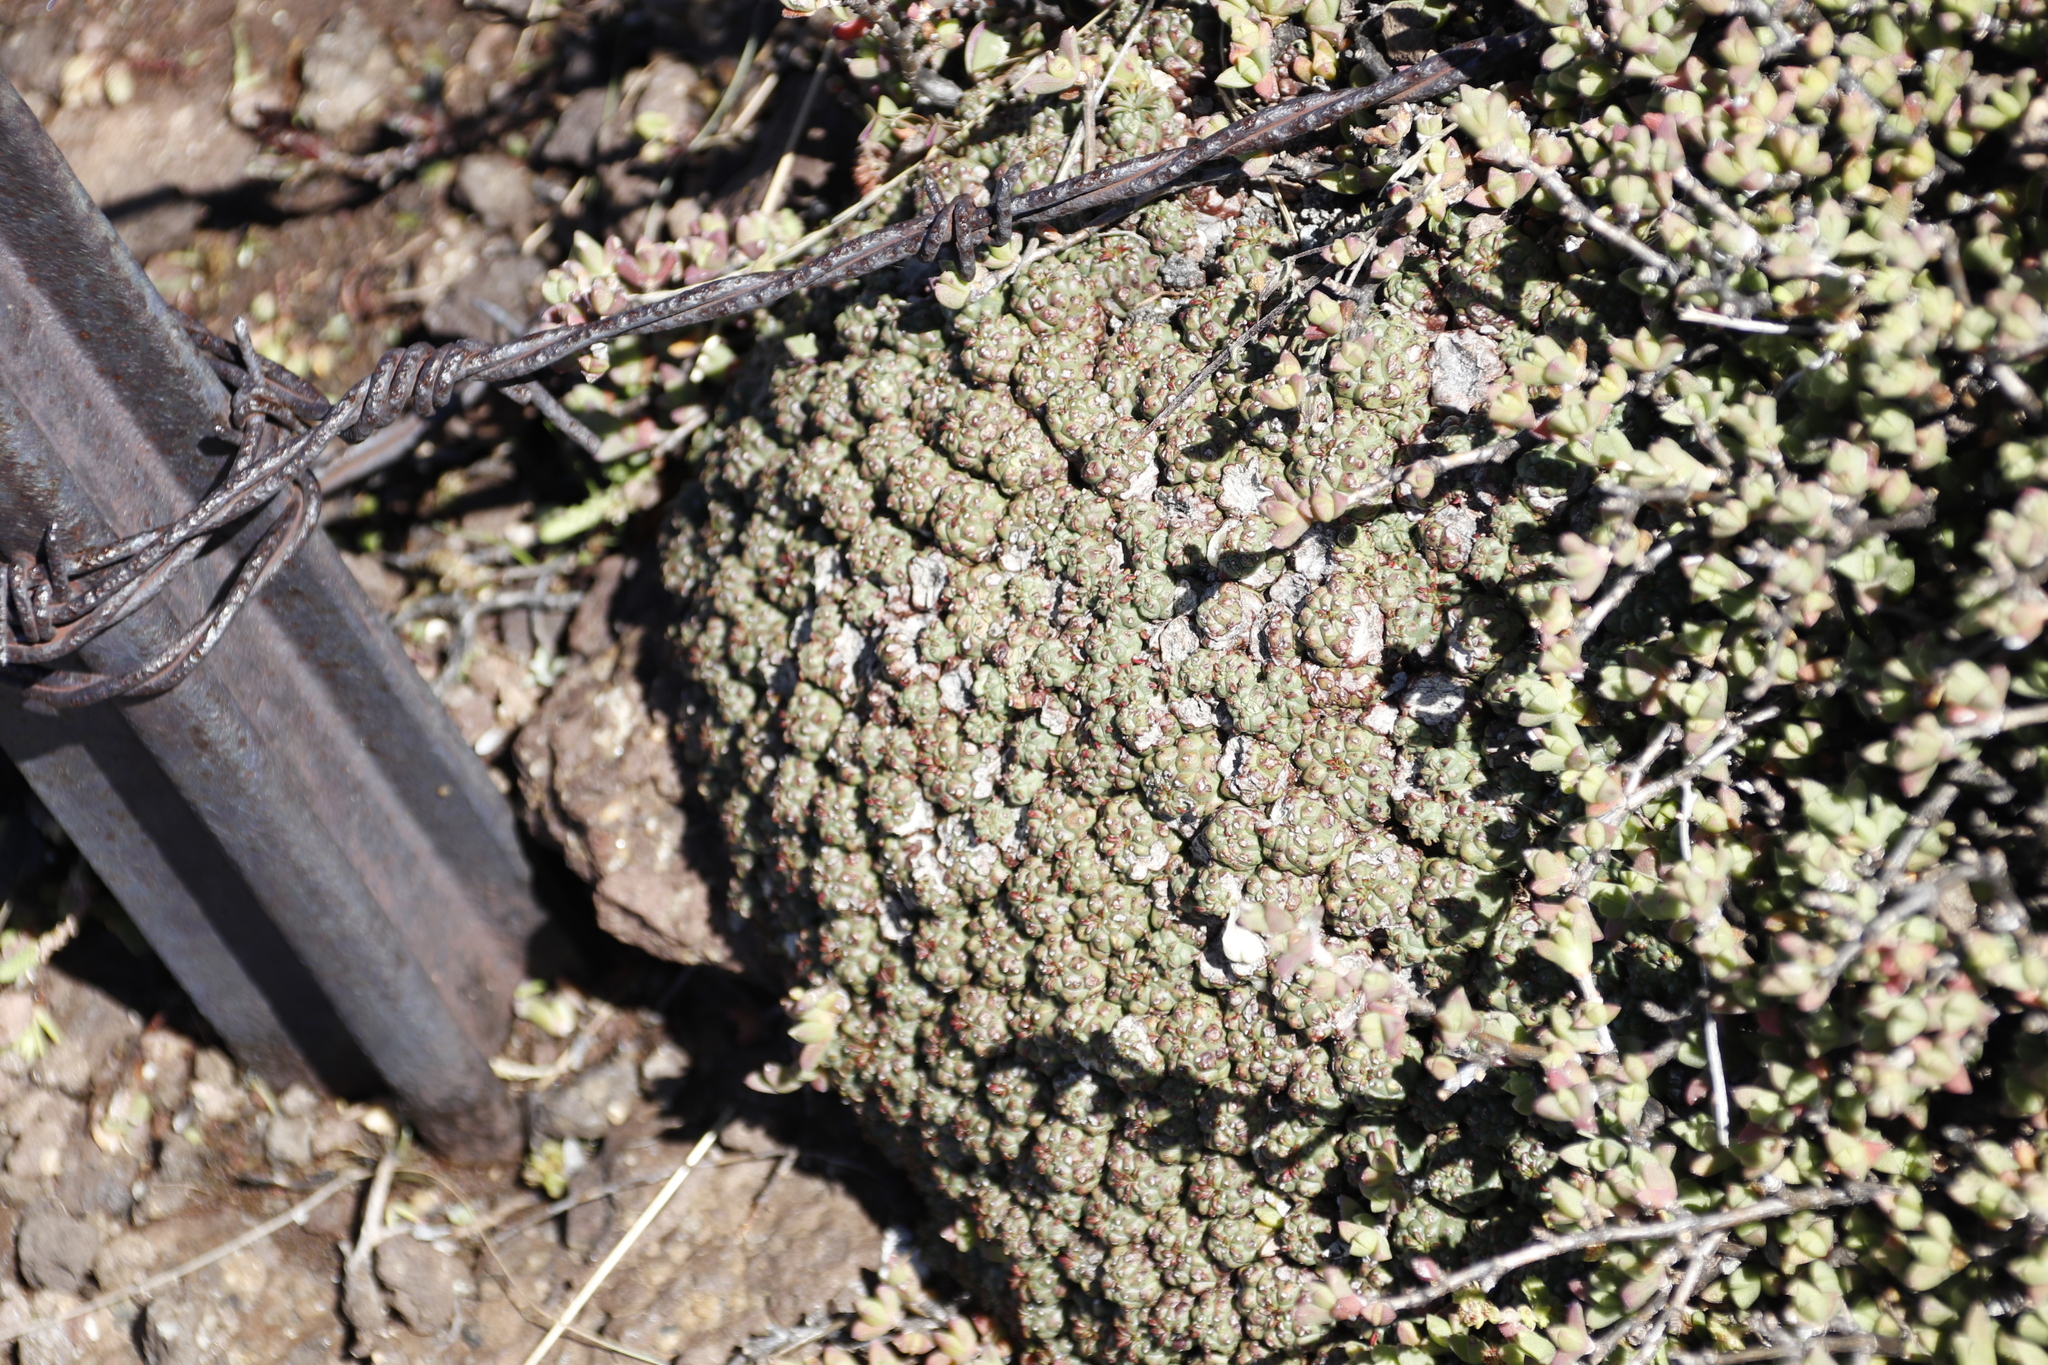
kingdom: Plantae
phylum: Tracheophyta
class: Magnoliopsida
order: Malpighiales
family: Euphorbiaceae
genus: Euphorbia
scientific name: Euphorbia clavarioides
